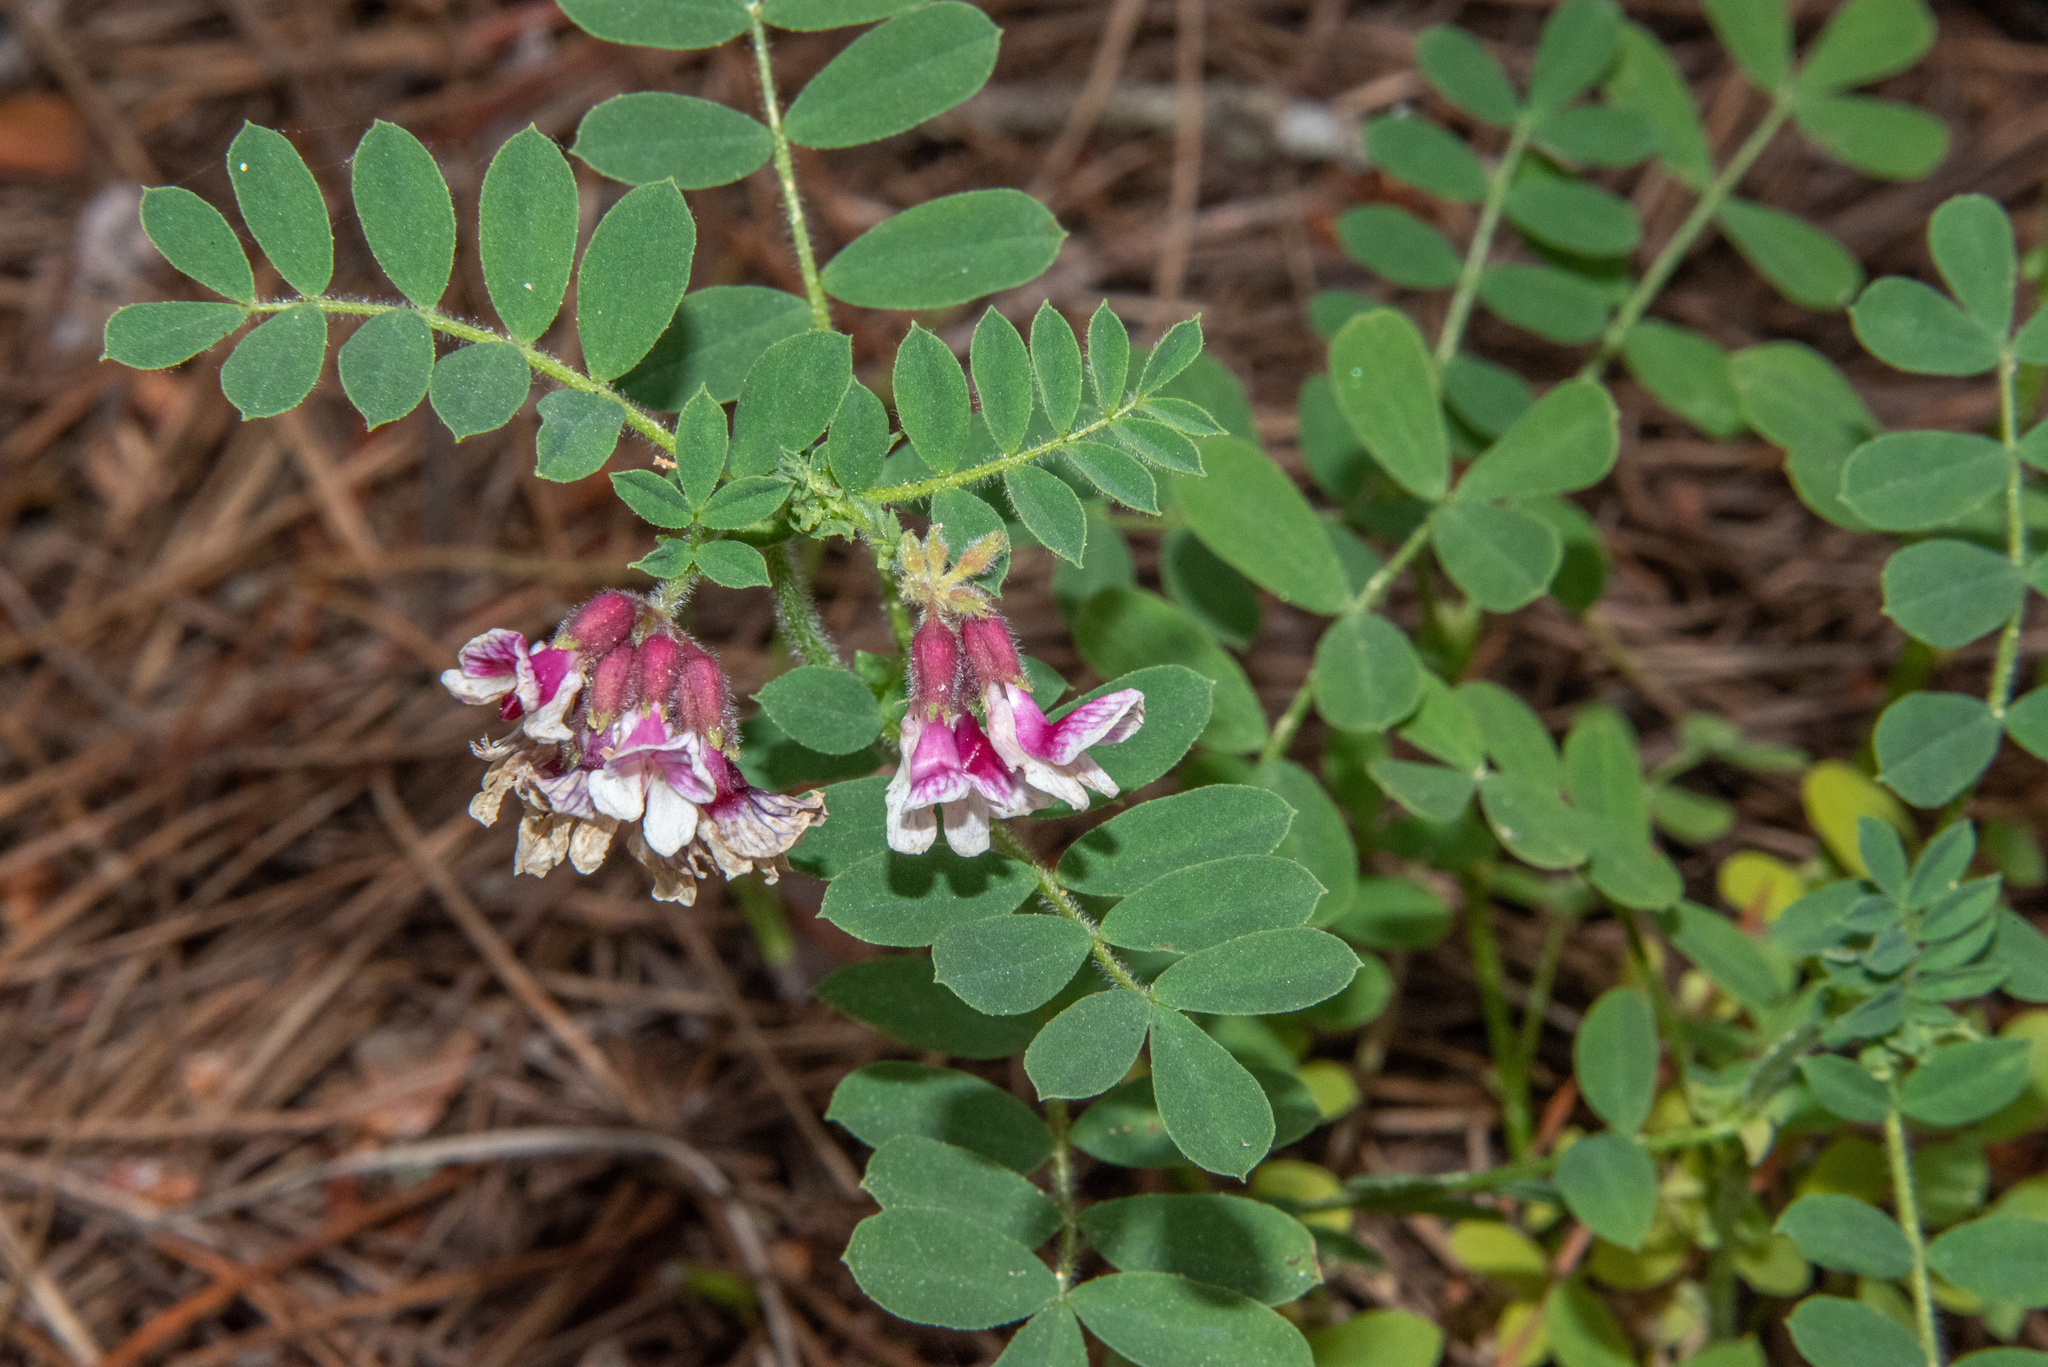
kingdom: Plantae
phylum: Tracheophyta
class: Magnoliopsida
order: Fabales
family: Fabaceae
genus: Hosackia
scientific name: Hosackia stipularis
